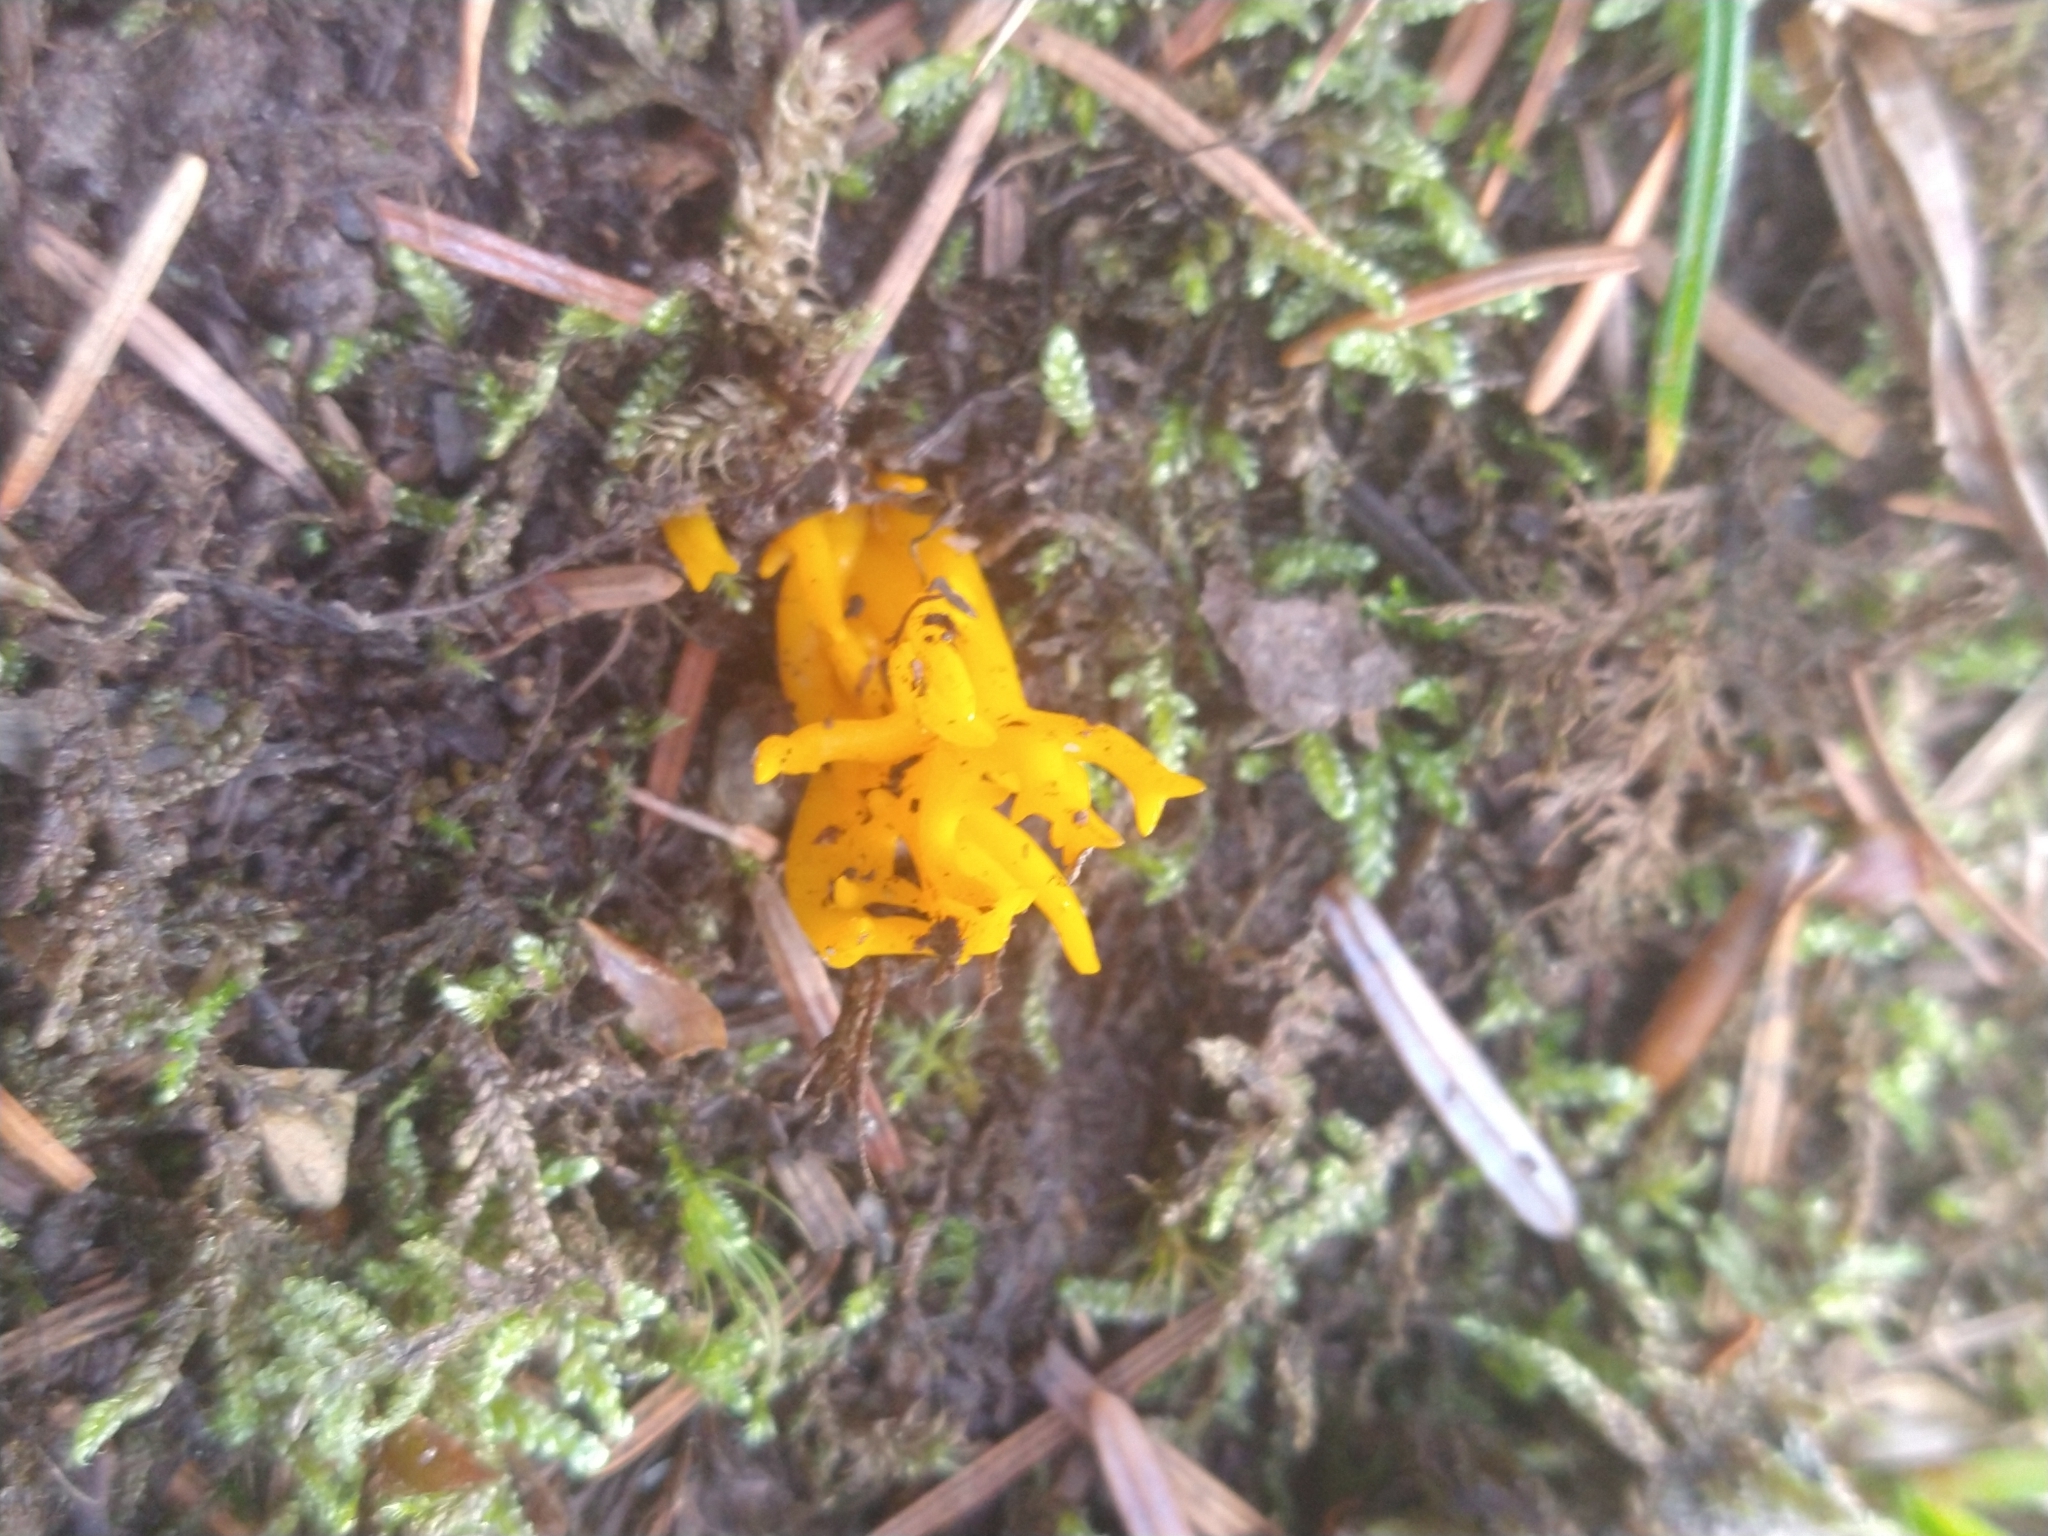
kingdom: Fungi
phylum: Basidiomycota
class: Dacrymycetes
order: Dacrymycetales
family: Dacrymycetaceae
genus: Calocera
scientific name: Calocera viscosa
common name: Yellow stagshorn
